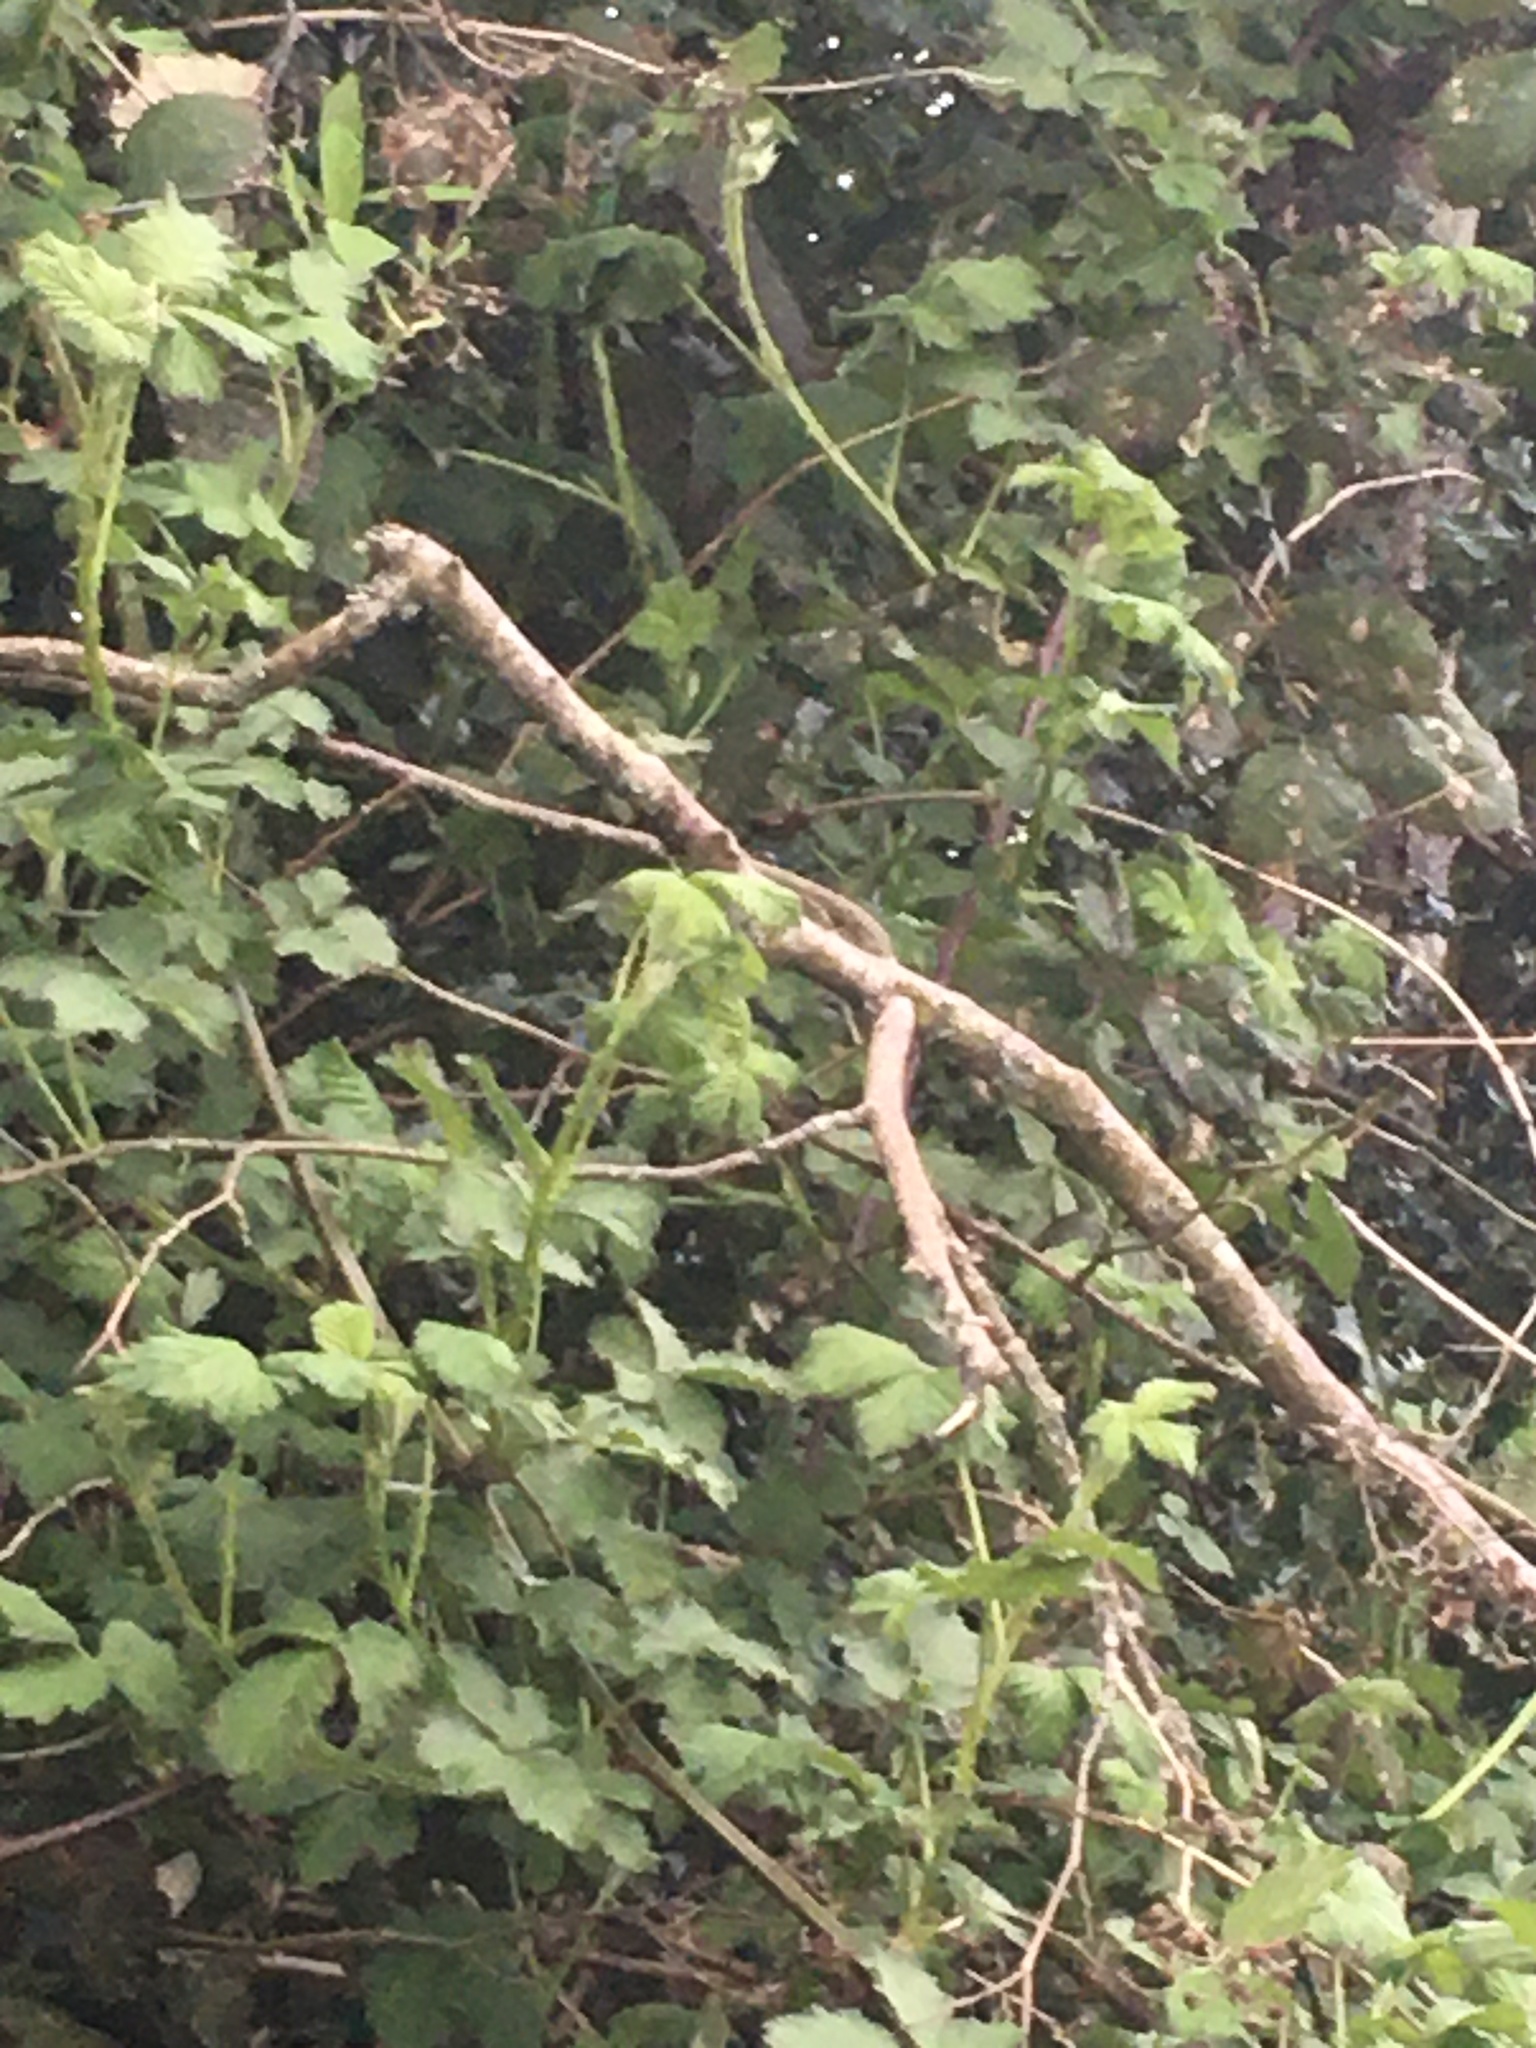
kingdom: Animalia
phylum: Chordata
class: Aves
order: Passeriformes
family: Paridae
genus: Poecile
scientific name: Poecile atricapillus
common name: Black-capped chickadee
